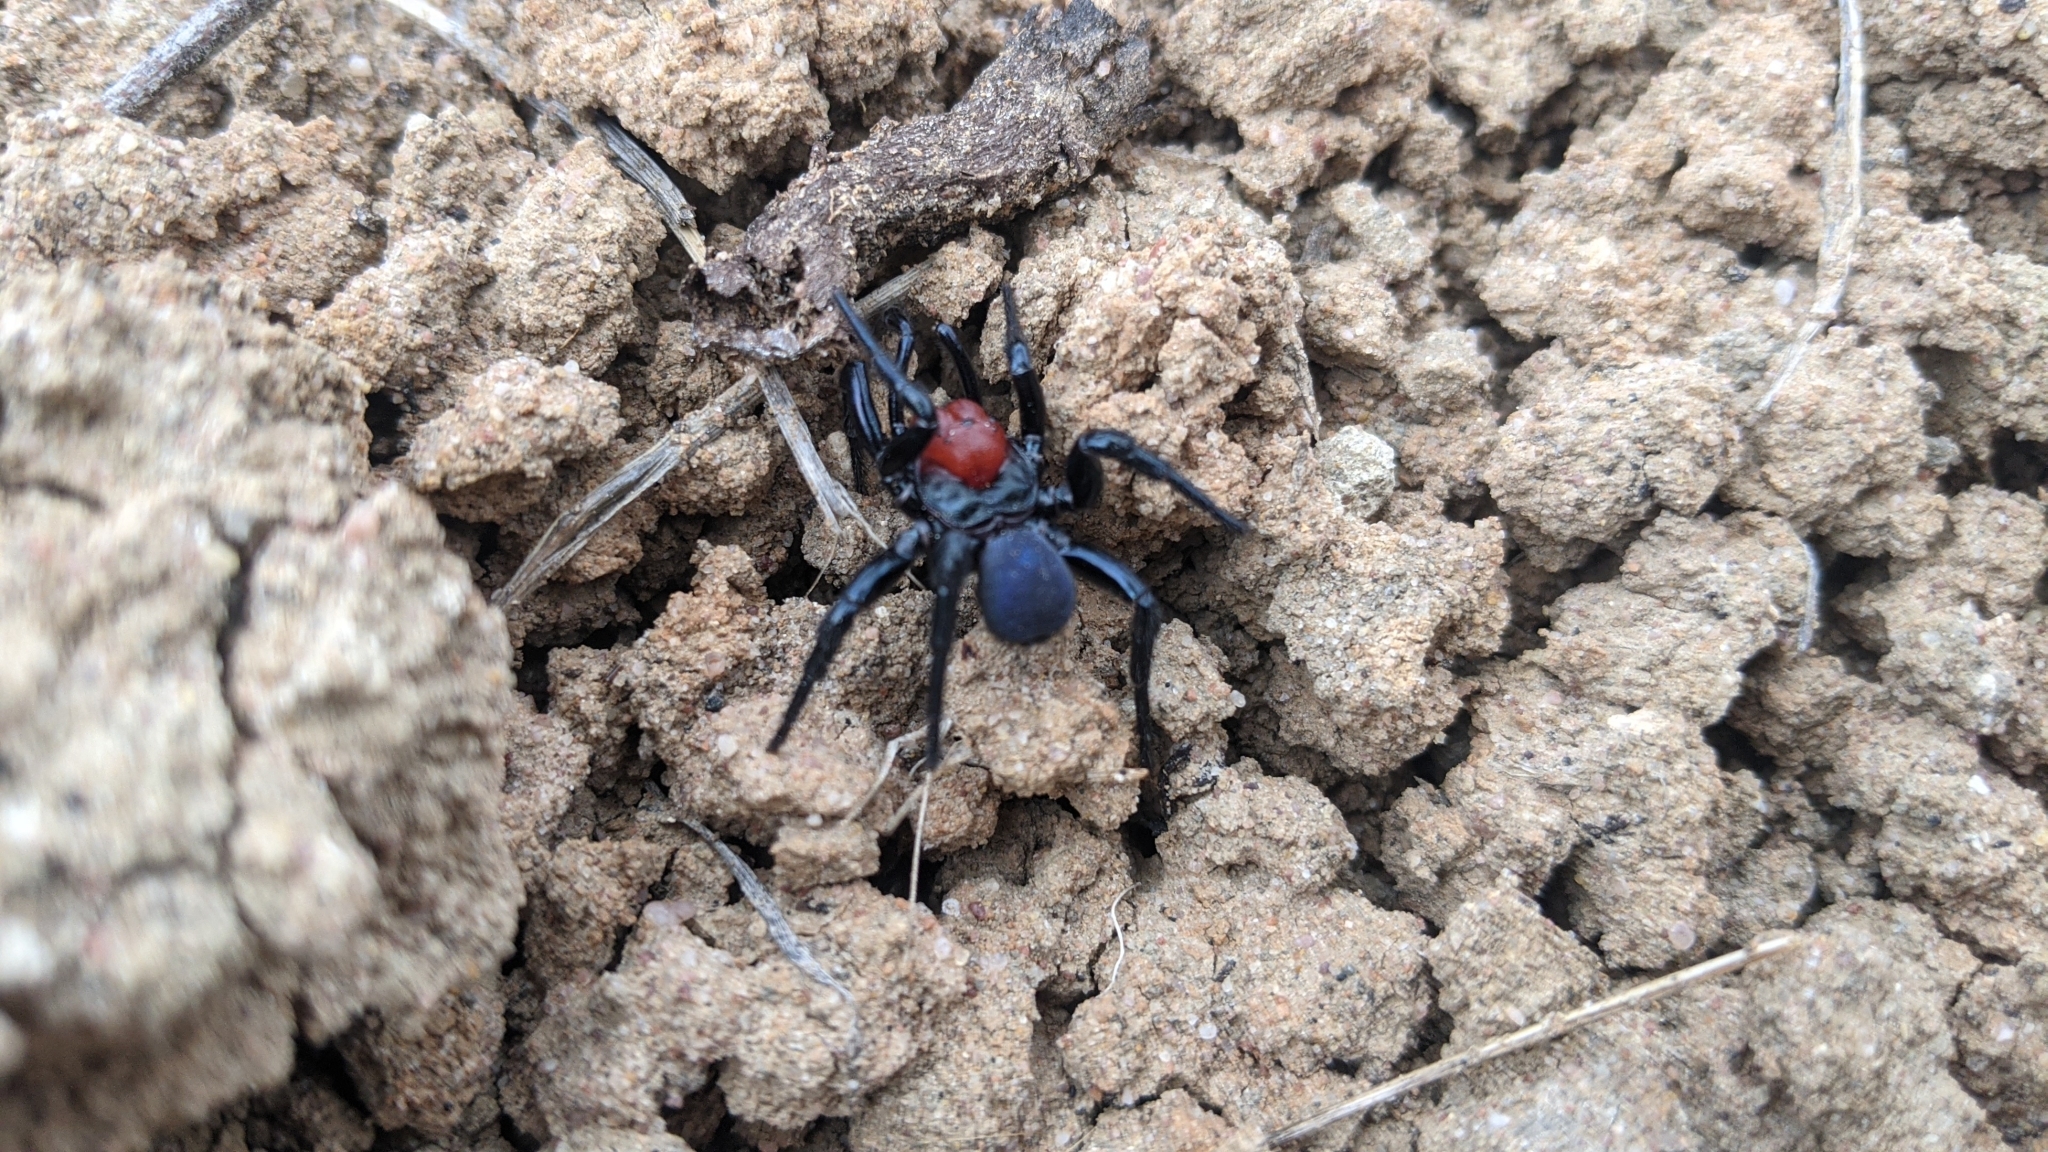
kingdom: Animalia
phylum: Arthropoda
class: Arachnida
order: Araneae
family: Actinopodidae
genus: Missulena
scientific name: Missulena occatoria
